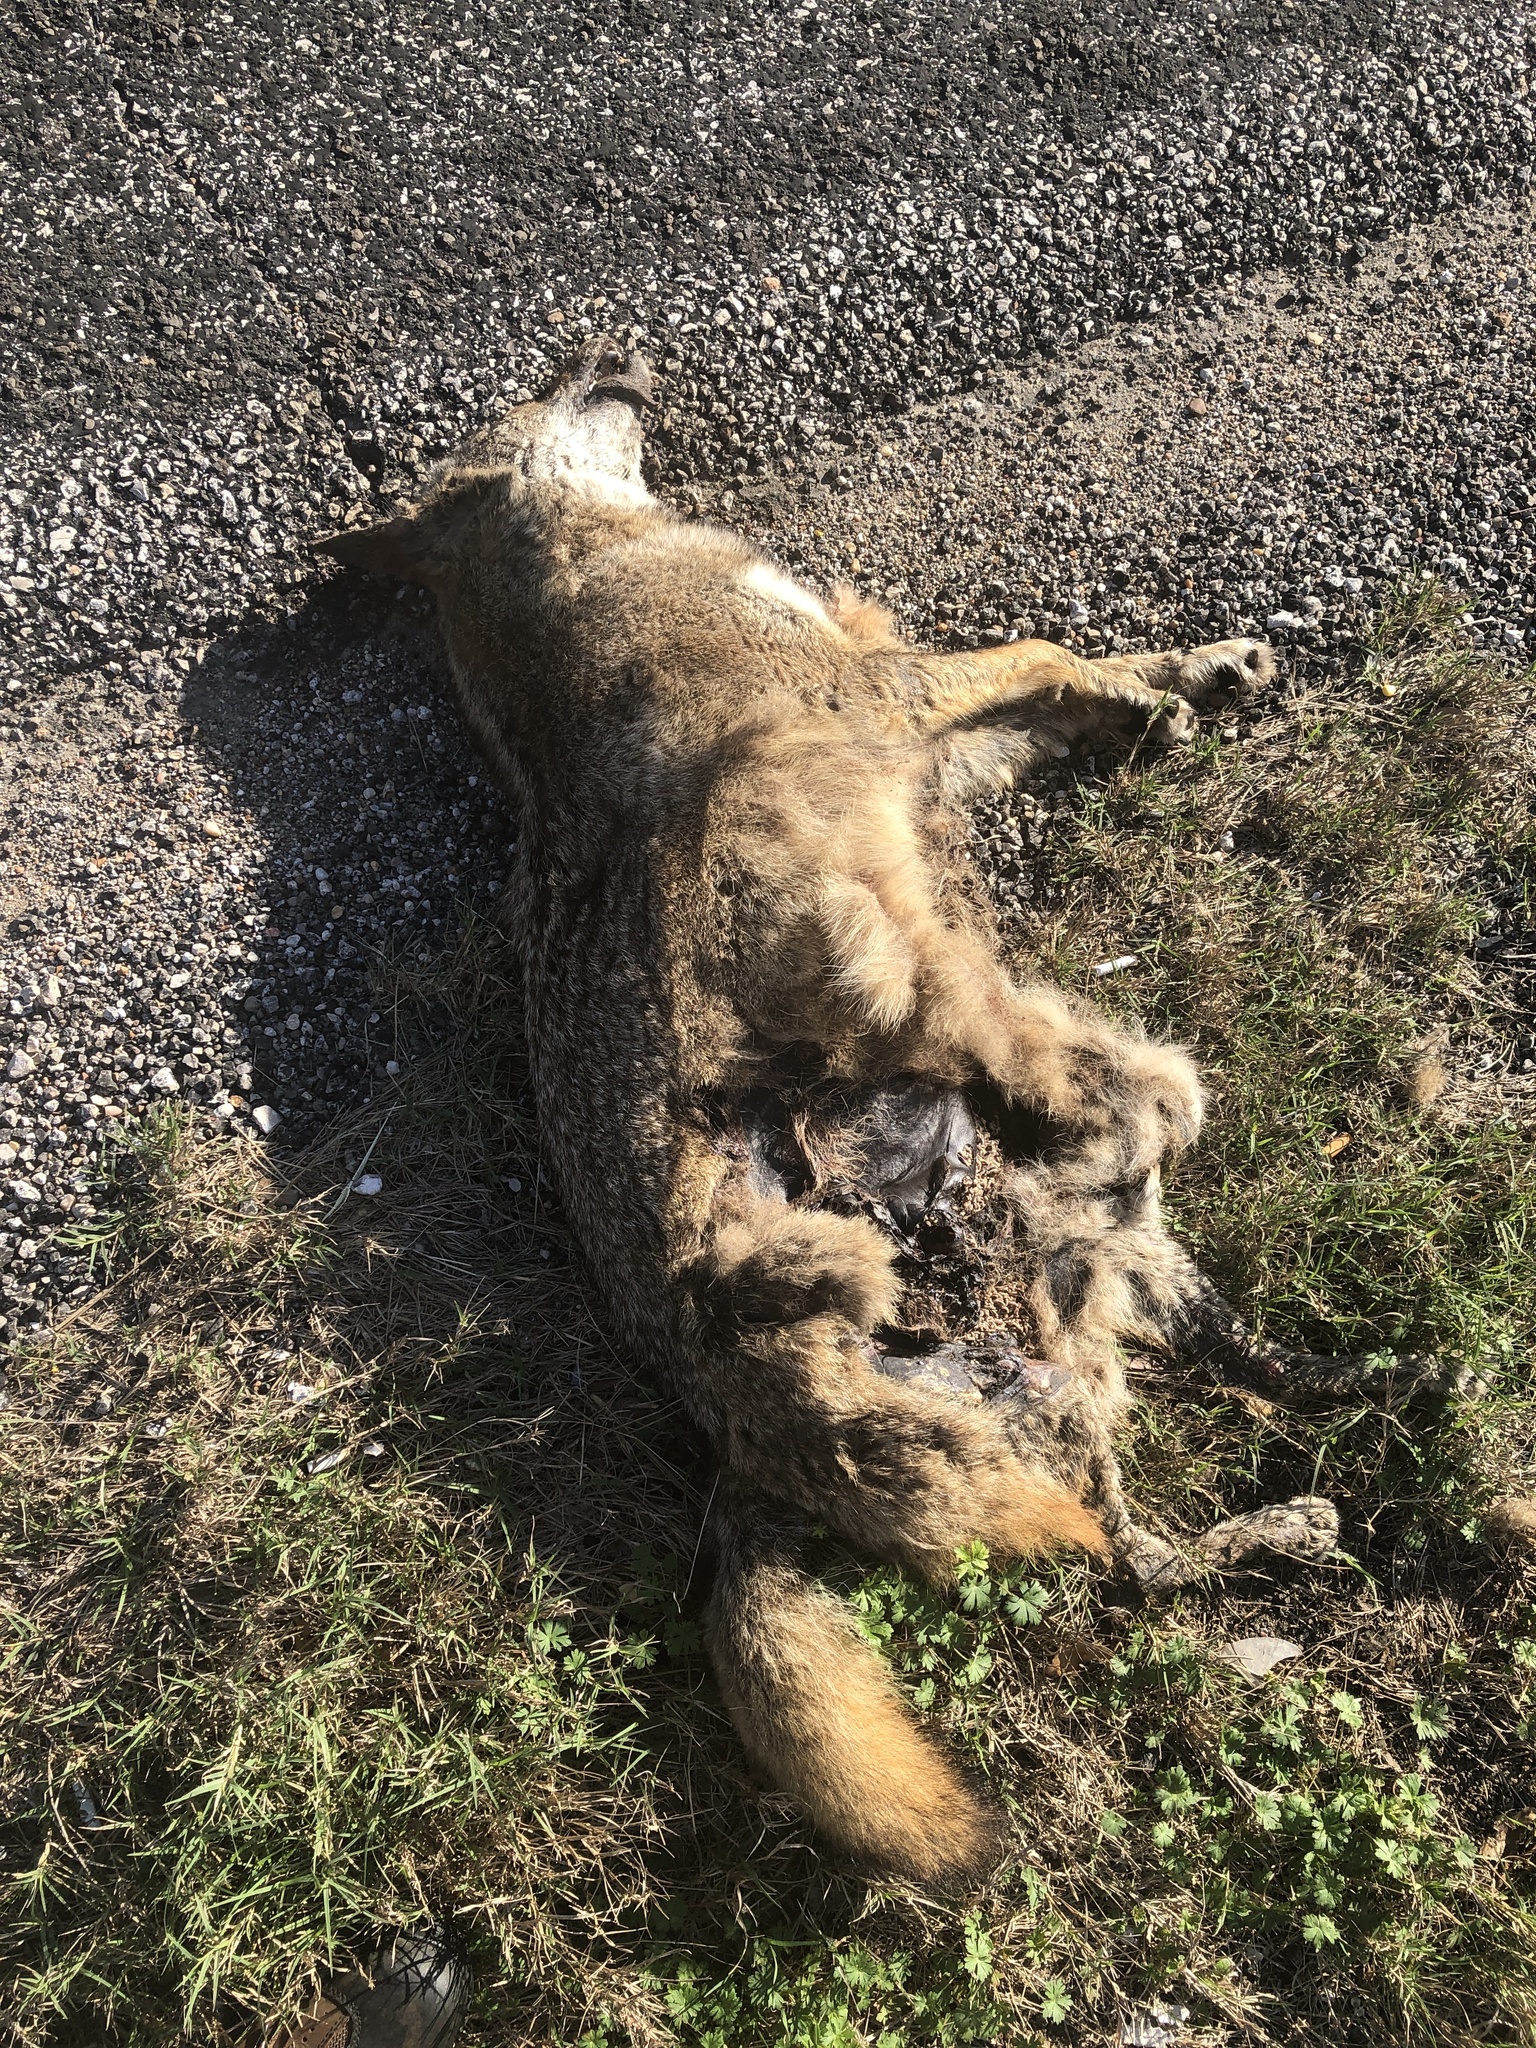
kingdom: Animalia
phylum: Chordata
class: Mammalia
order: Carnivora
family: Canidae
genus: Canis
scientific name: Canis latrans
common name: Coyote
